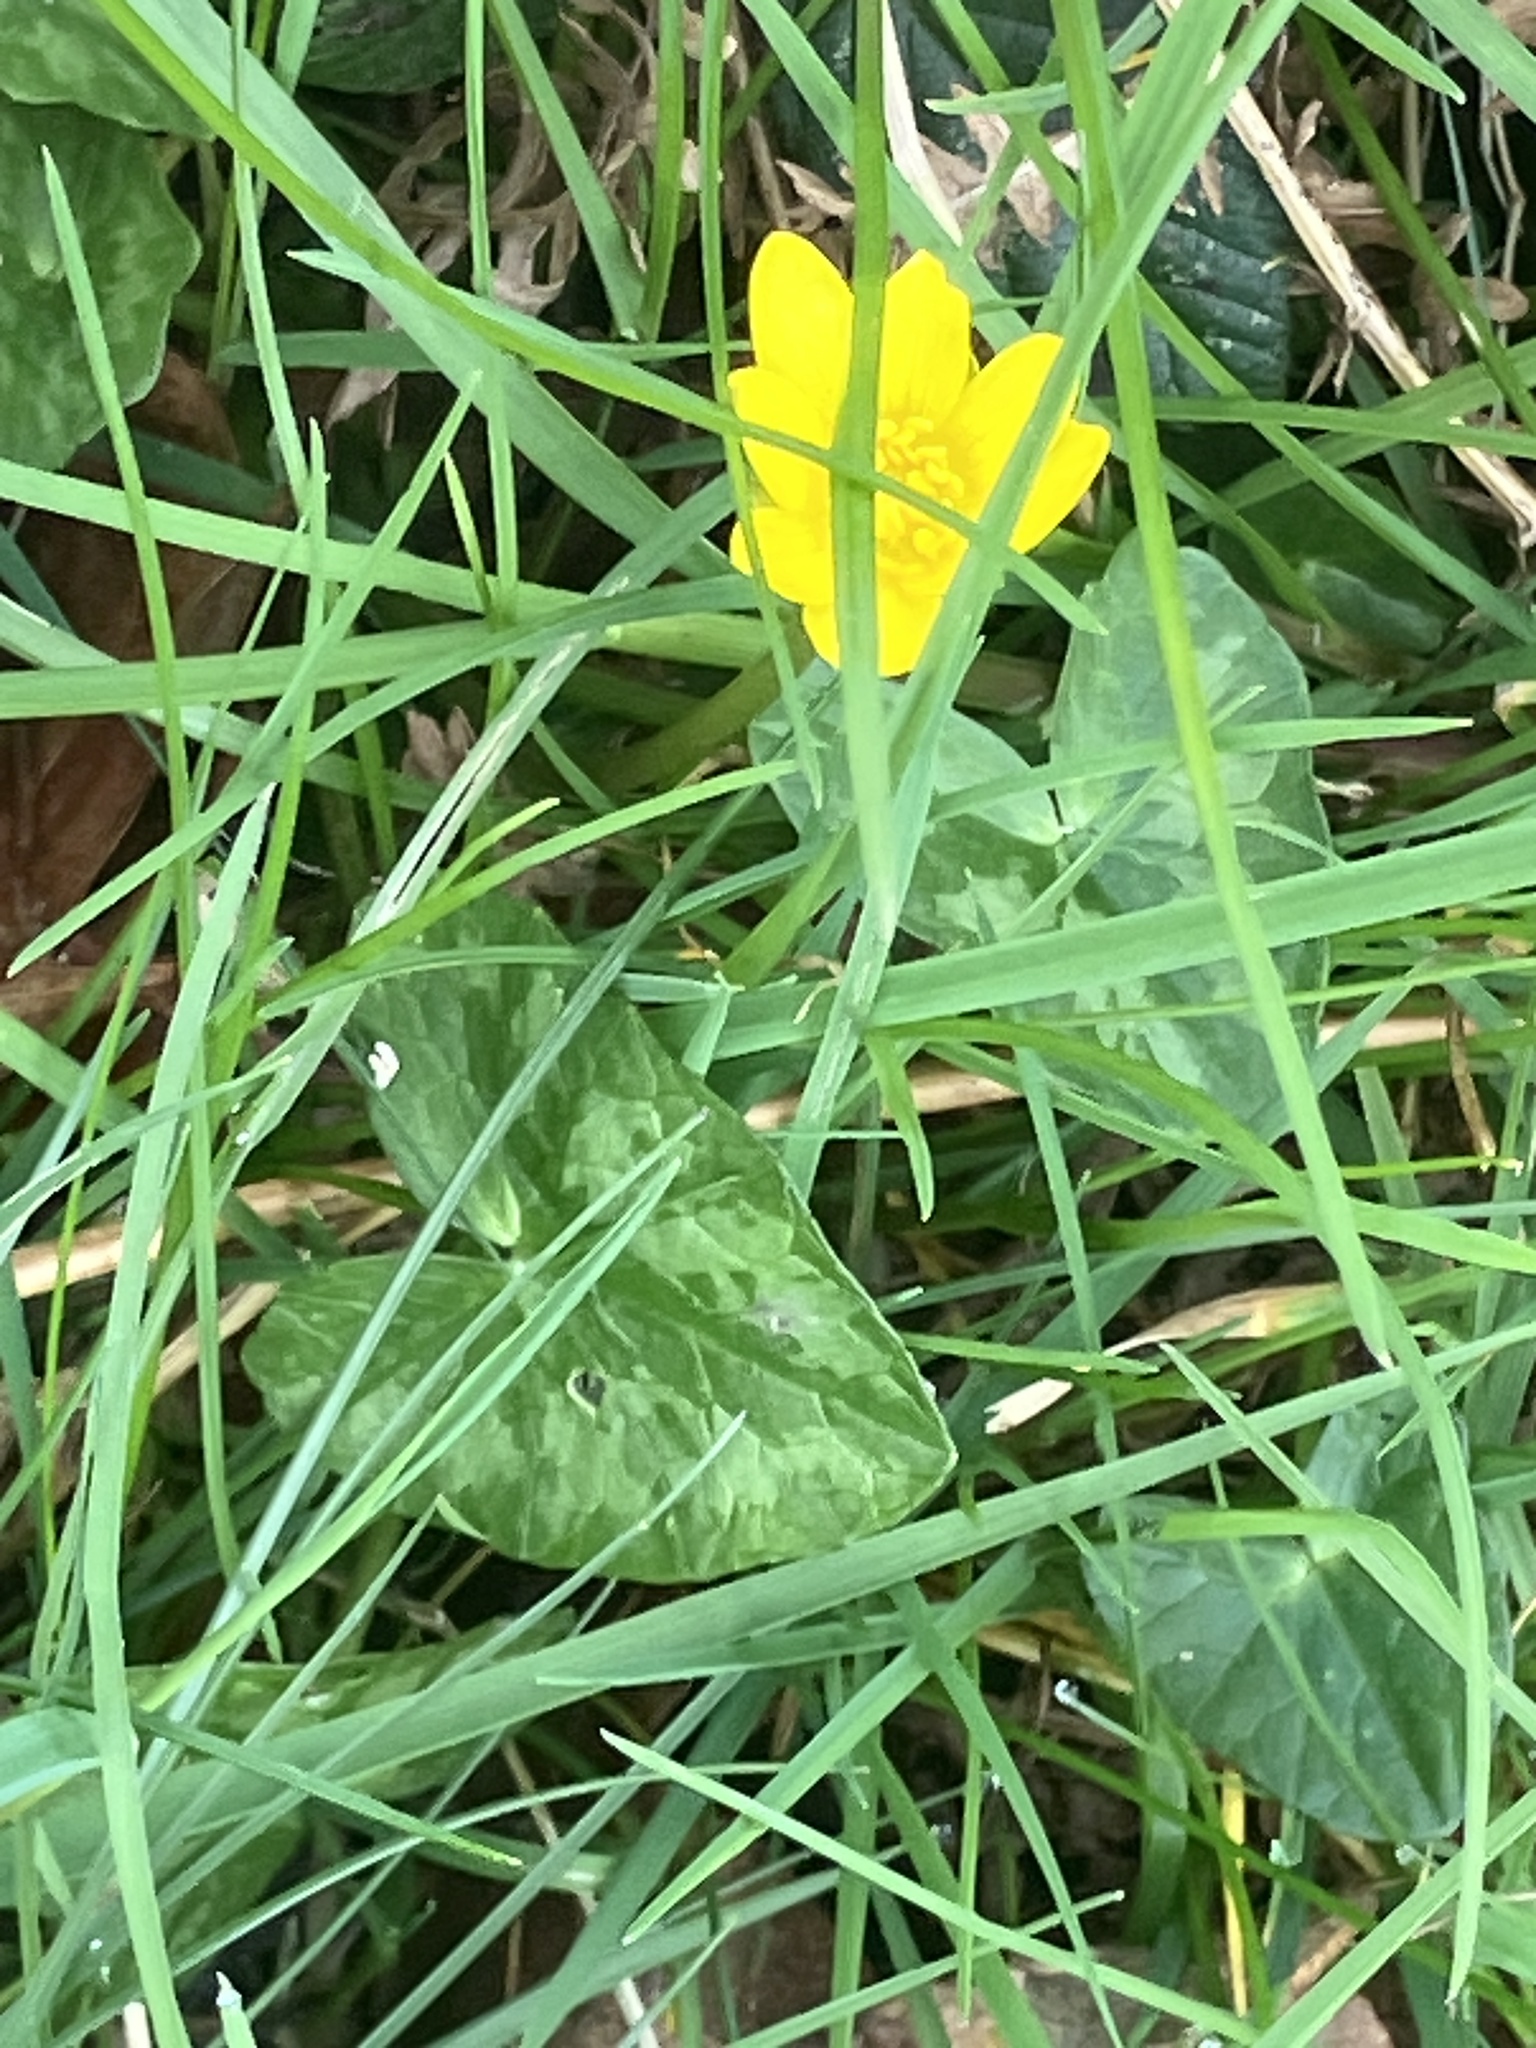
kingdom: Plantae
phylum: Tracheophyta
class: Magnoliopsida
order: Ranunculales
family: Ranunculaceae
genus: Ficaria
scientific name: Ficaria verna
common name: Lesser celandine
